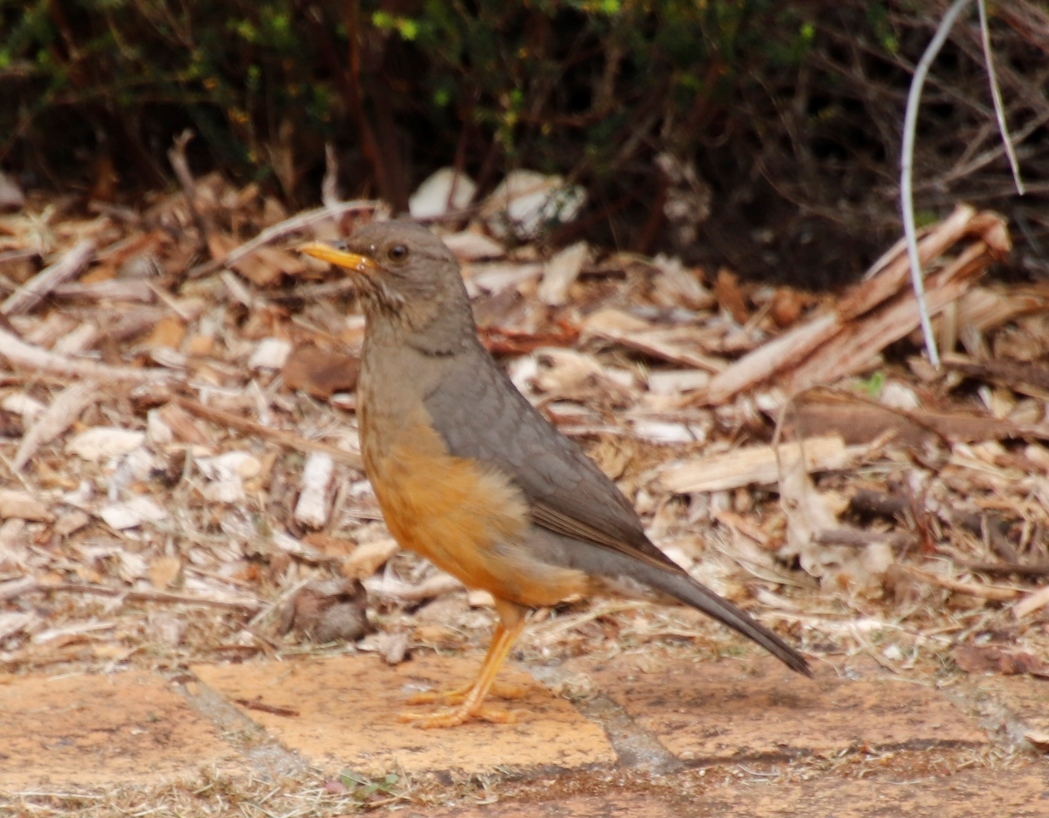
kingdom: Animalia
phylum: Chordata
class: Aves
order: Passeriformes
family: Turdidae
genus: Turdus
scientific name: Turdus olivaceus
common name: Olive thrush
